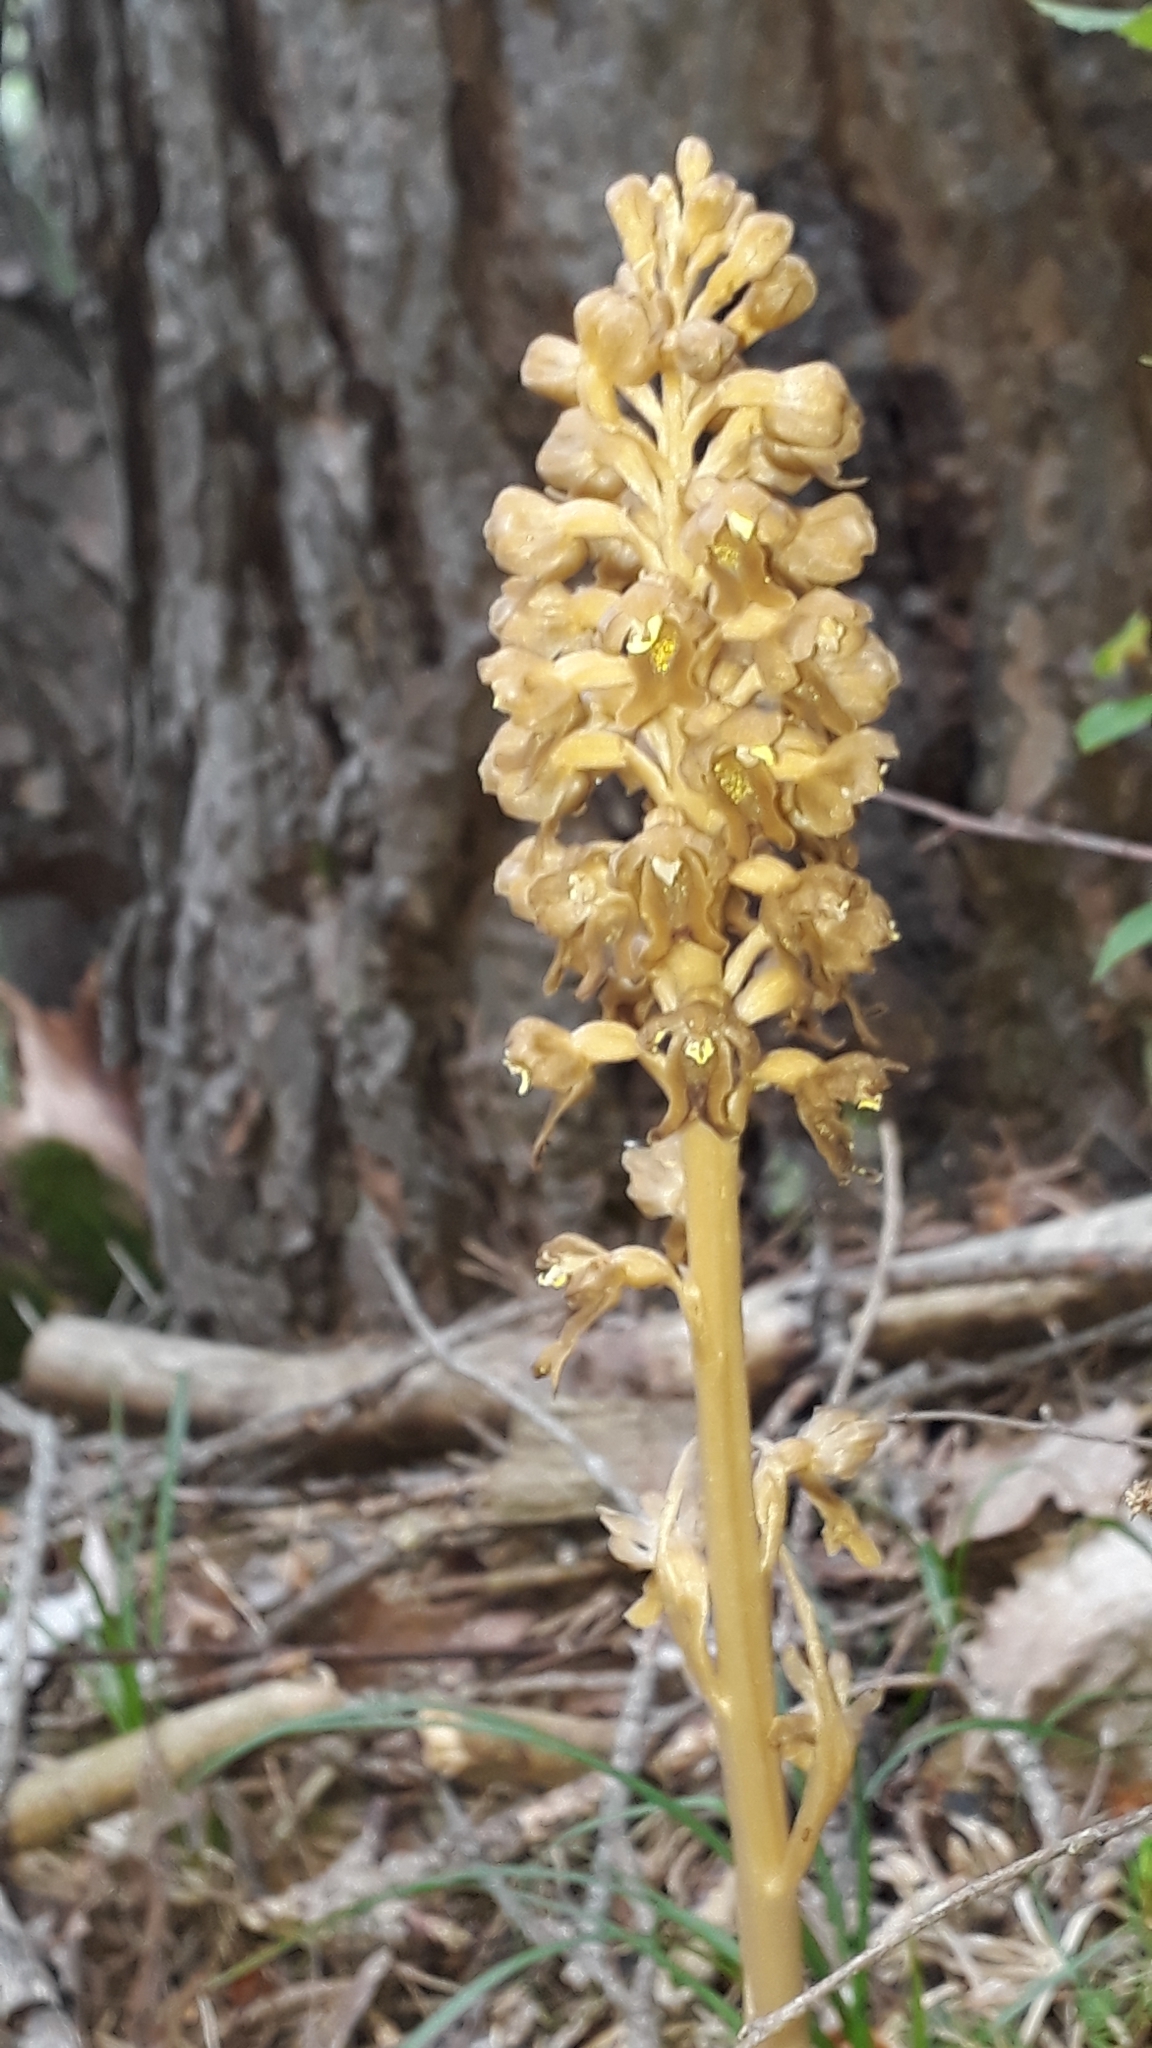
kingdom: Plantae
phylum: Tracheophyta
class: Liliopsida
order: Asparagales
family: Orchidaceae
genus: Neottia
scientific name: Neottia nidus-avis
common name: Bird's-nest orchid
